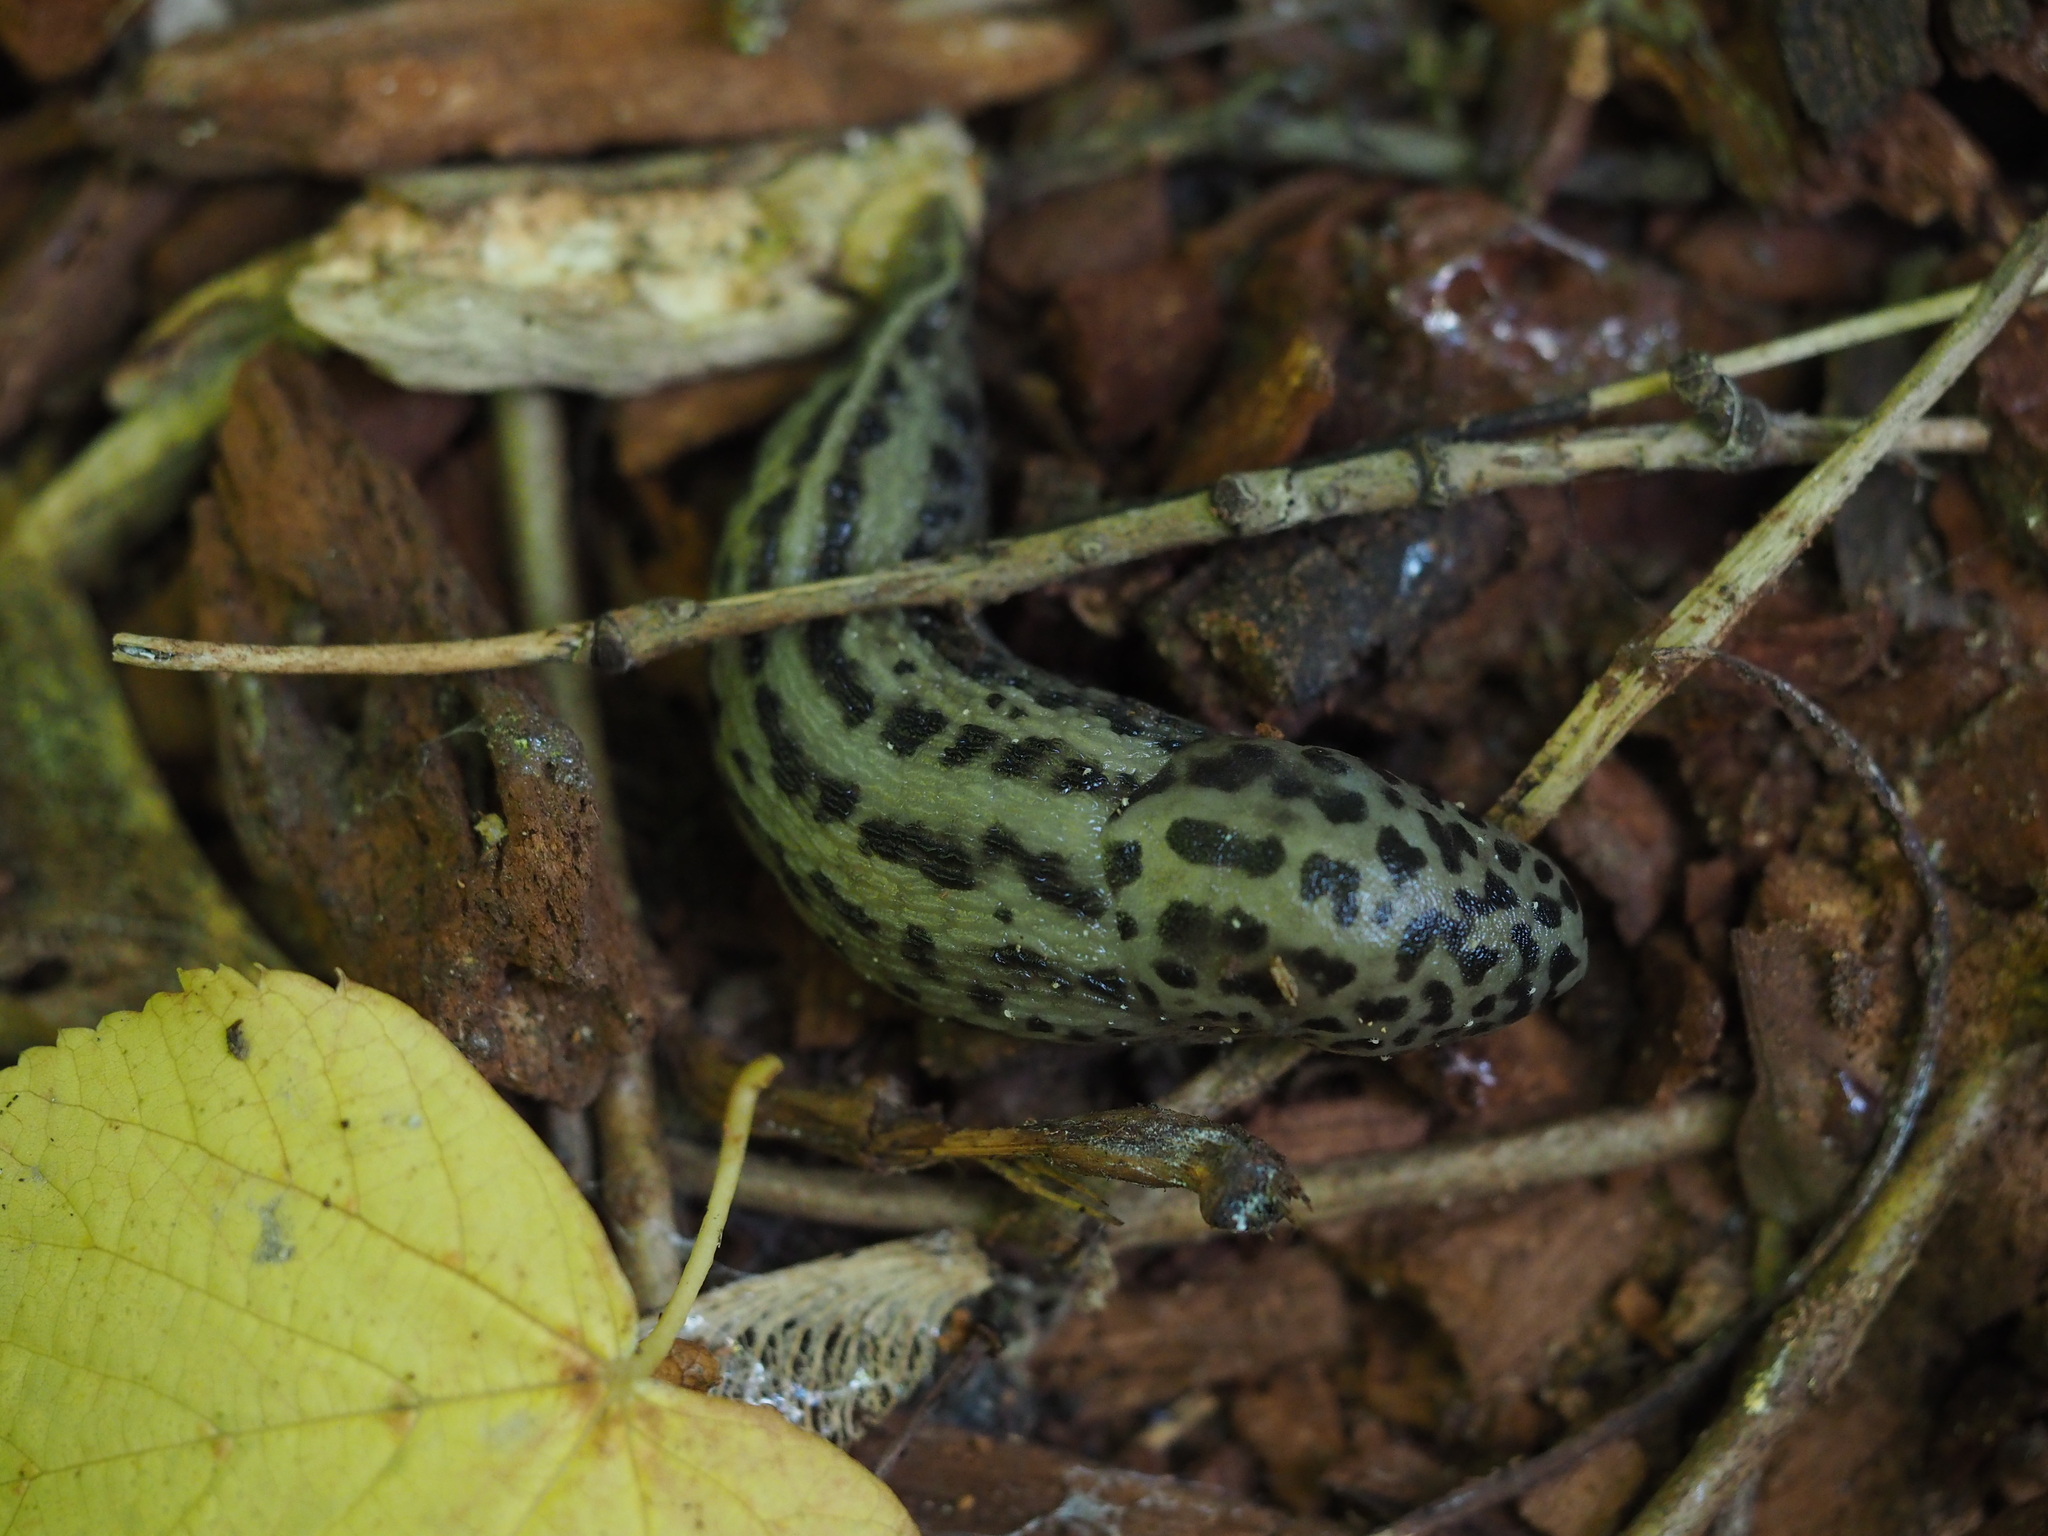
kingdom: Animalia
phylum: Mollusca
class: Gastropoda
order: Stylommatophora
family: Limacidae
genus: Limax
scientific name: Limax maximus
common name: Great grey slug
